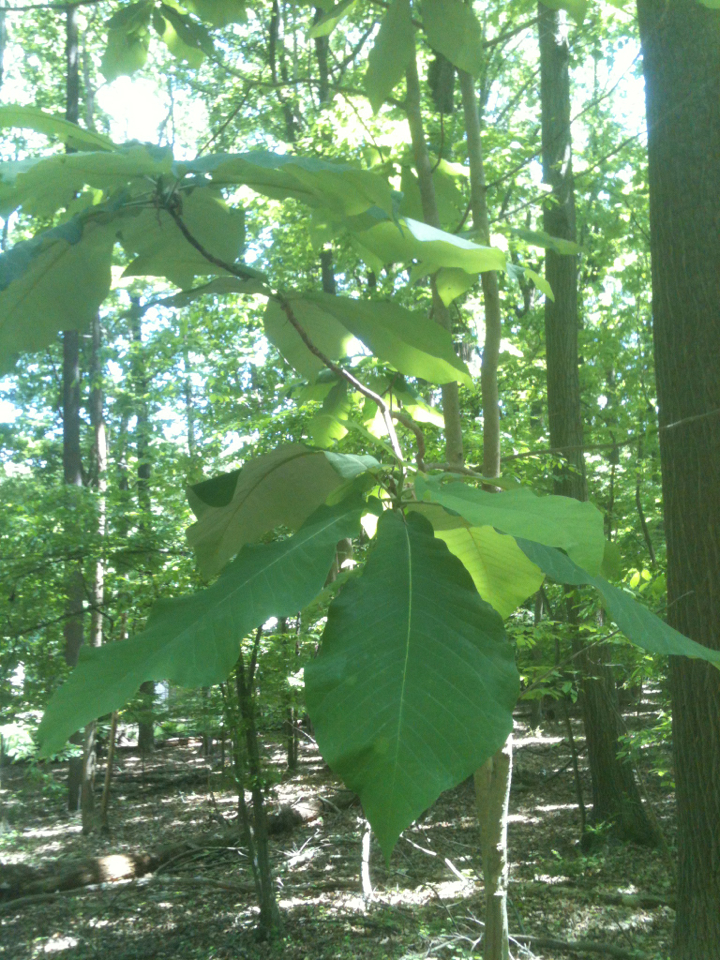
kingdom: Plantae
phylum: Tracheophyta
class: Magnoliopsida
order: Magnoliales
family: Magnoliaceae
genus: Magnolia
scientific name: Magnolia macrophylla
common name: Big-leaf magnolia
